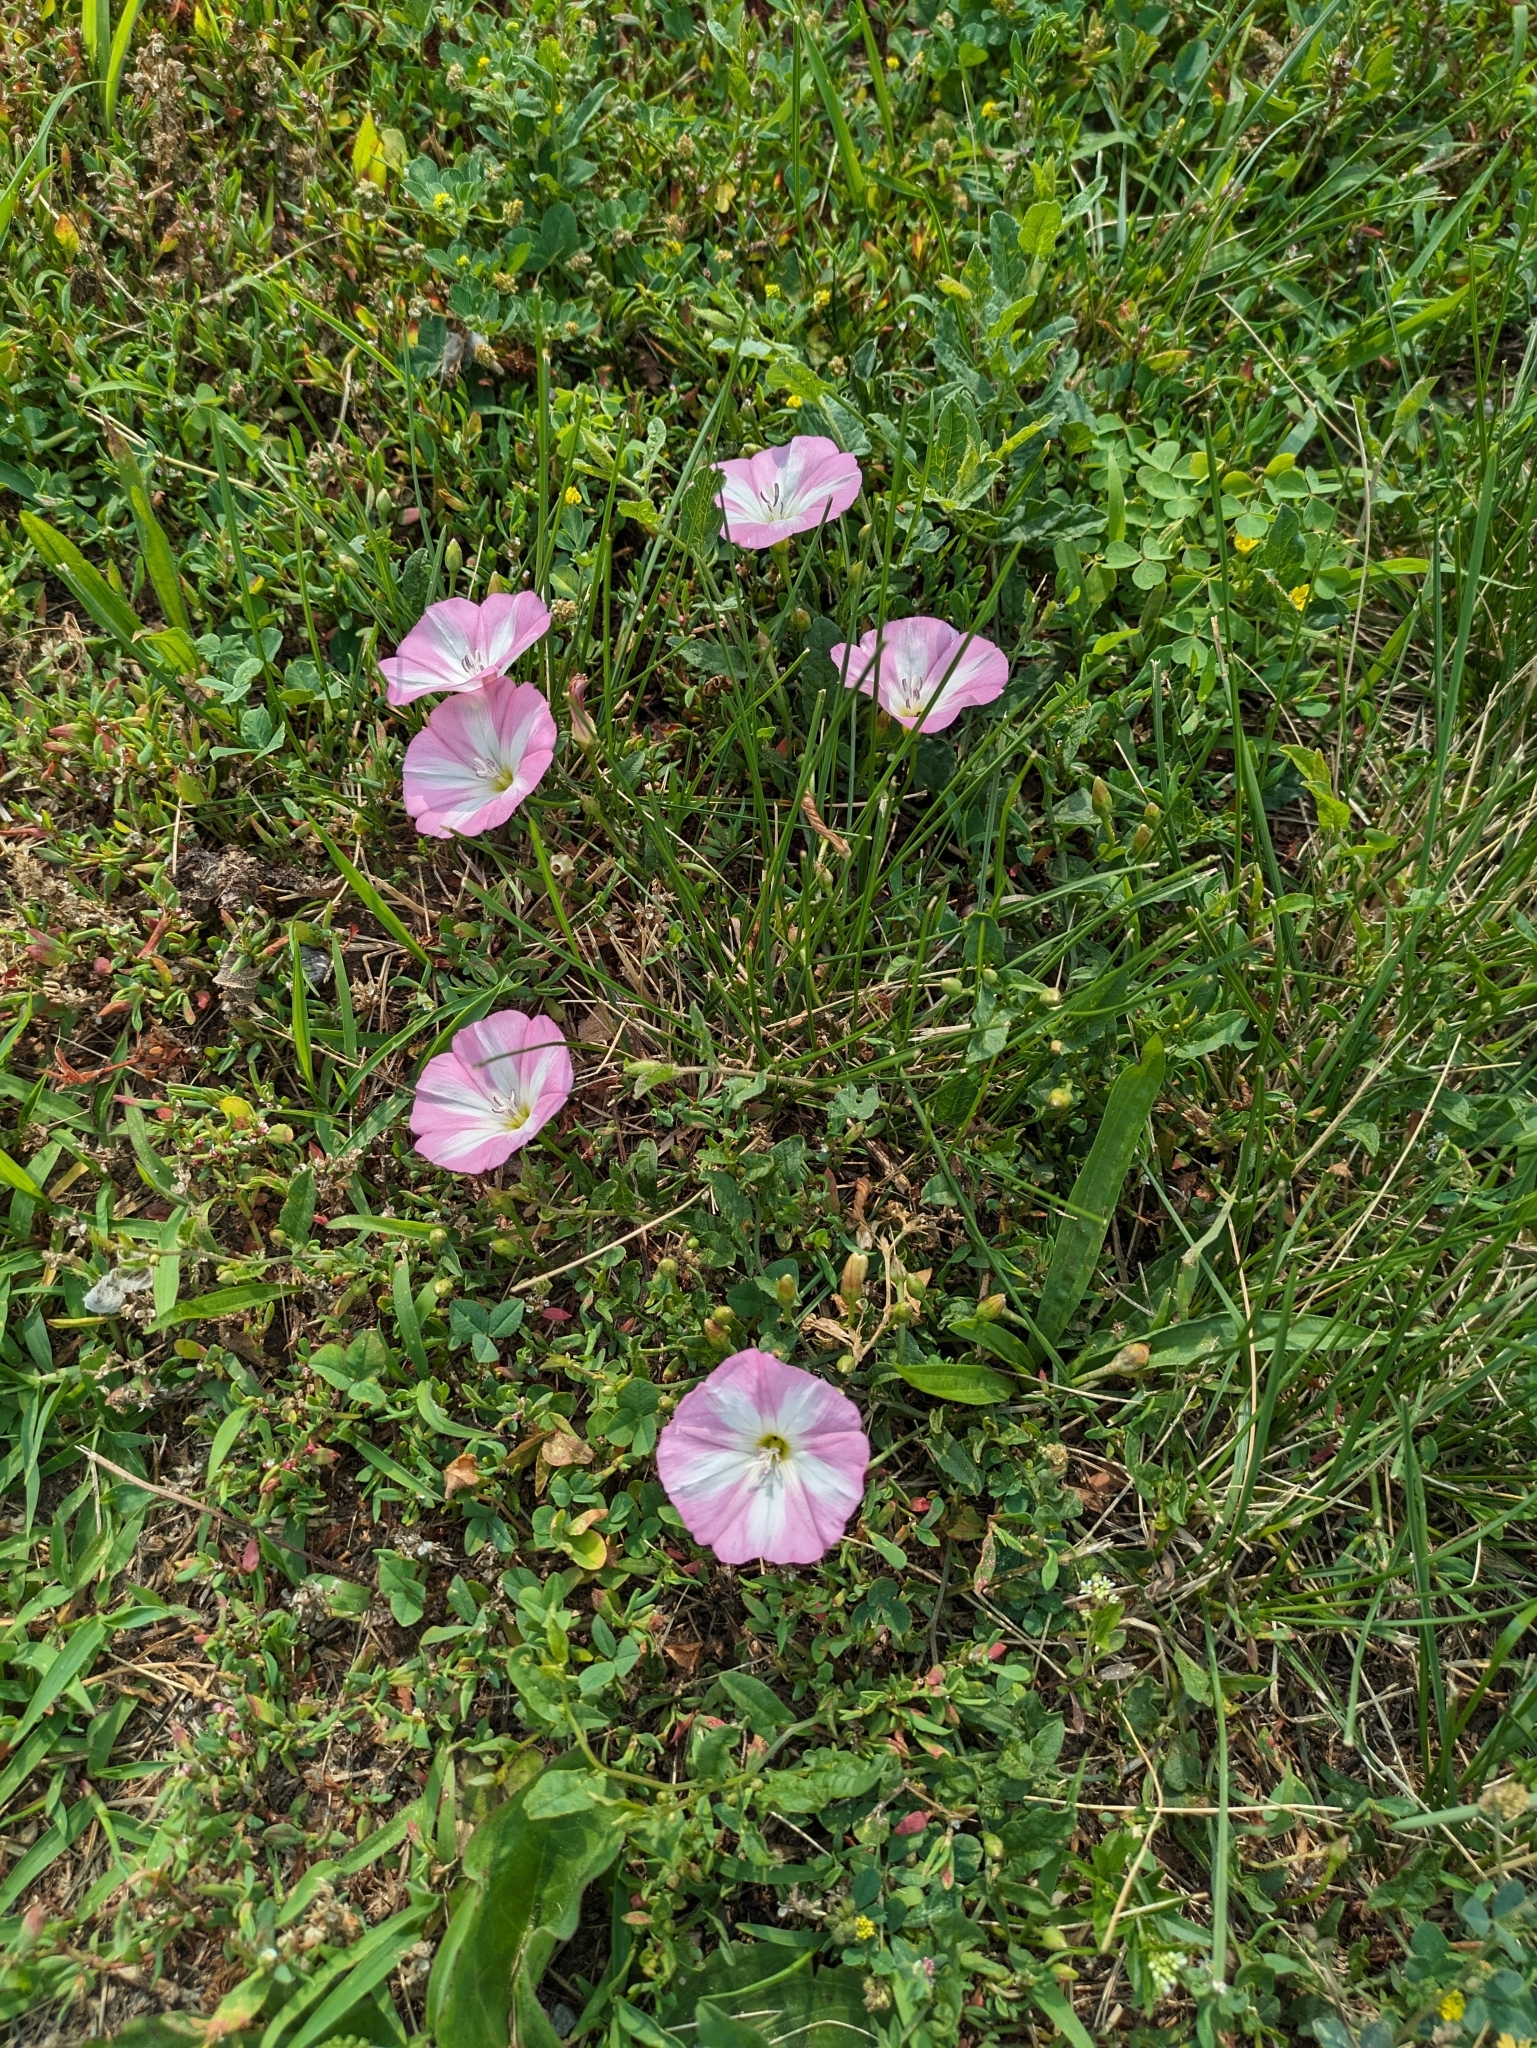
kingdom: Plantae
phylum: Tracheophyta
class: Magnoliopsida
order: Solanales
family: Convolvulaceae
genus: Convolvulus
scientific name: Convolvulus arvensis
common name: Field bindweed
